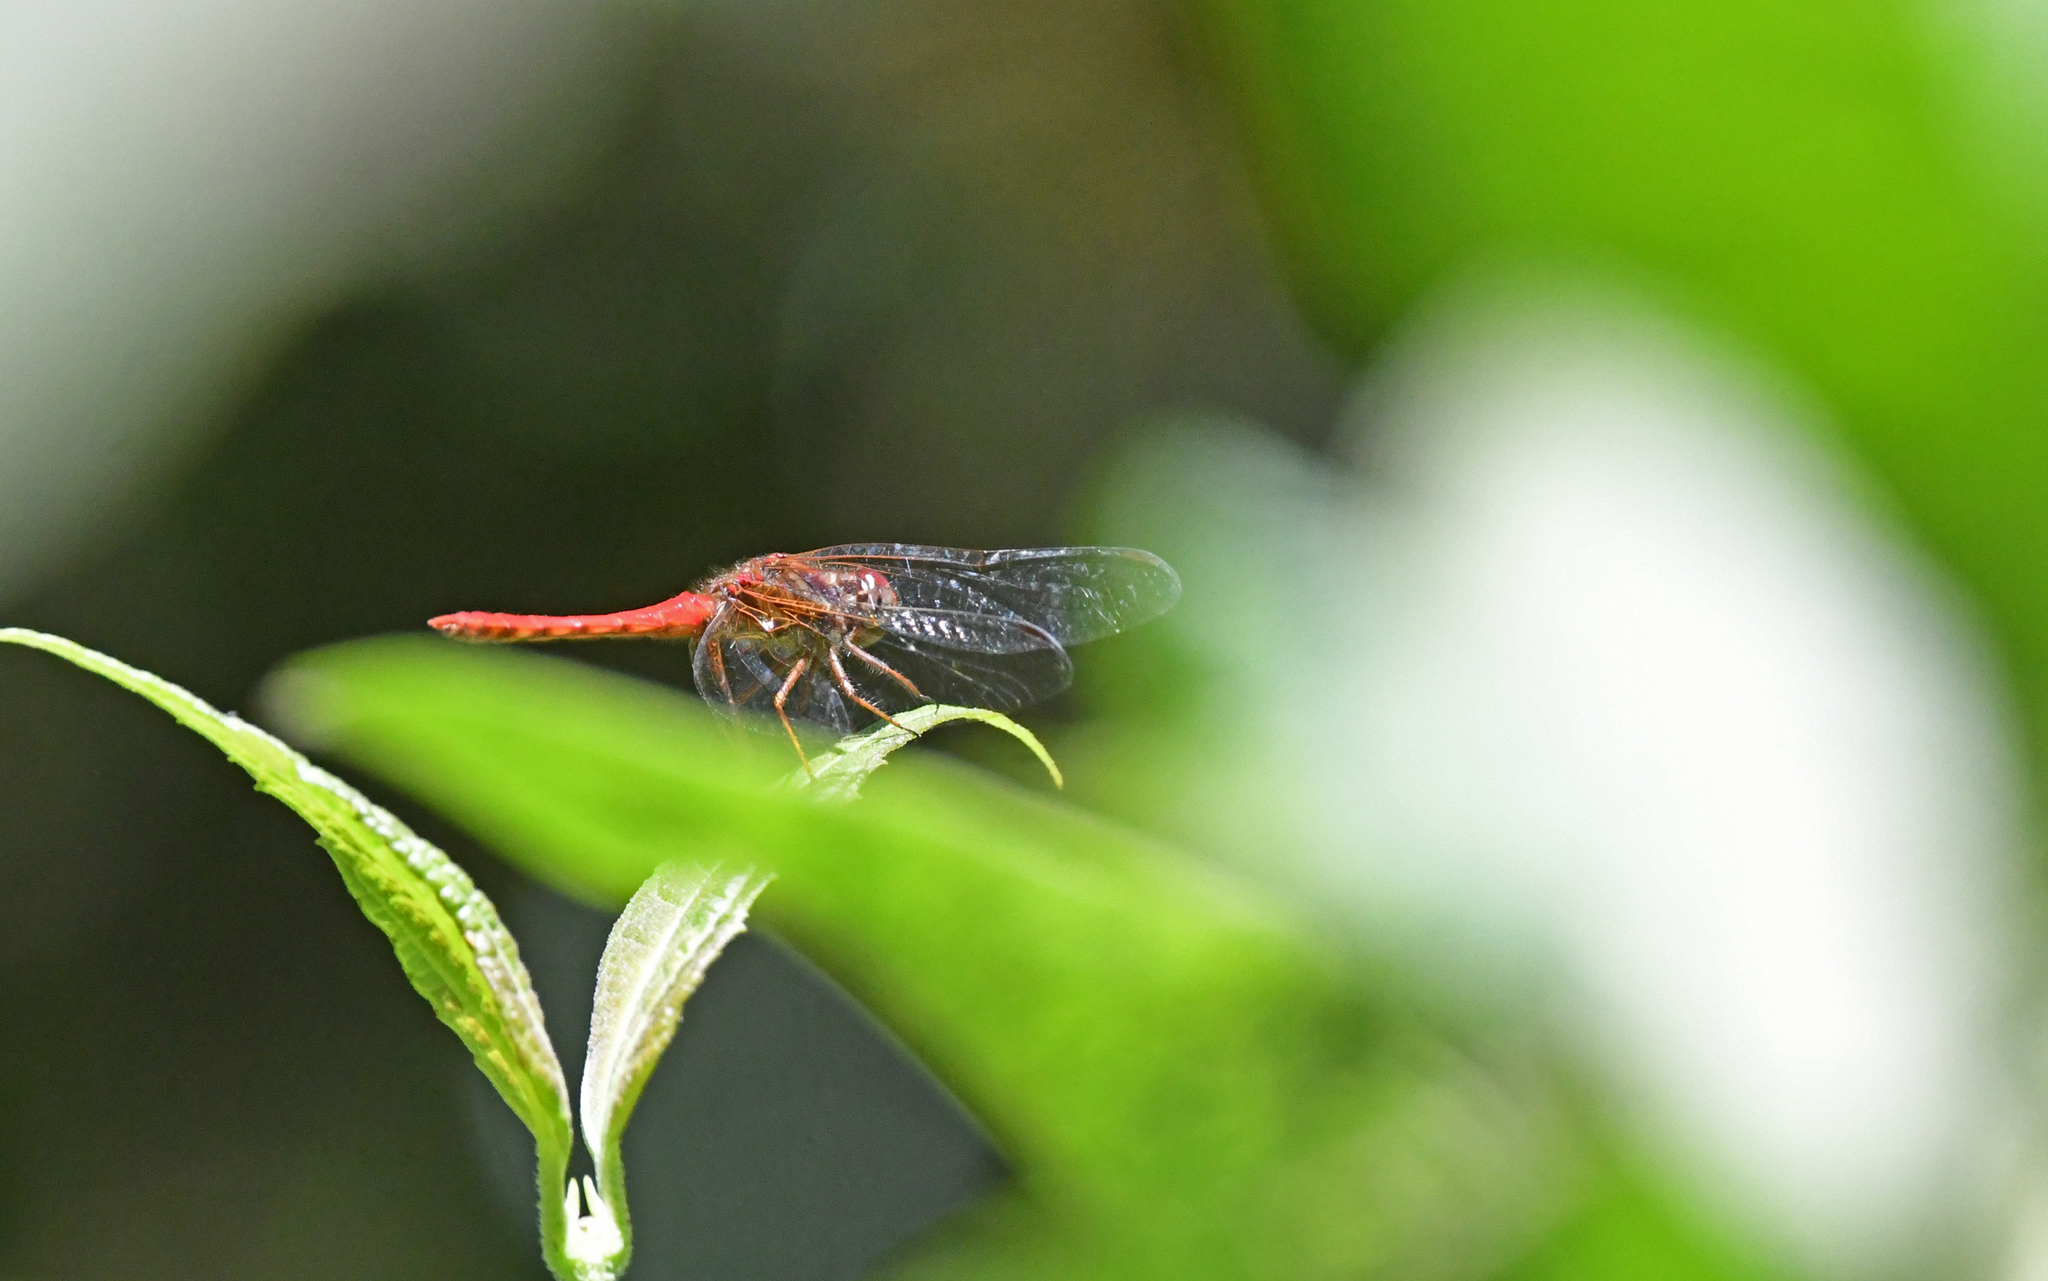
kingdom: Animalia
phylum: Arthropoda
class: Insecta
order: Odonata
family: Libellulidae
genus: Sympetrum
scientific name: Sympetrum gilvum
